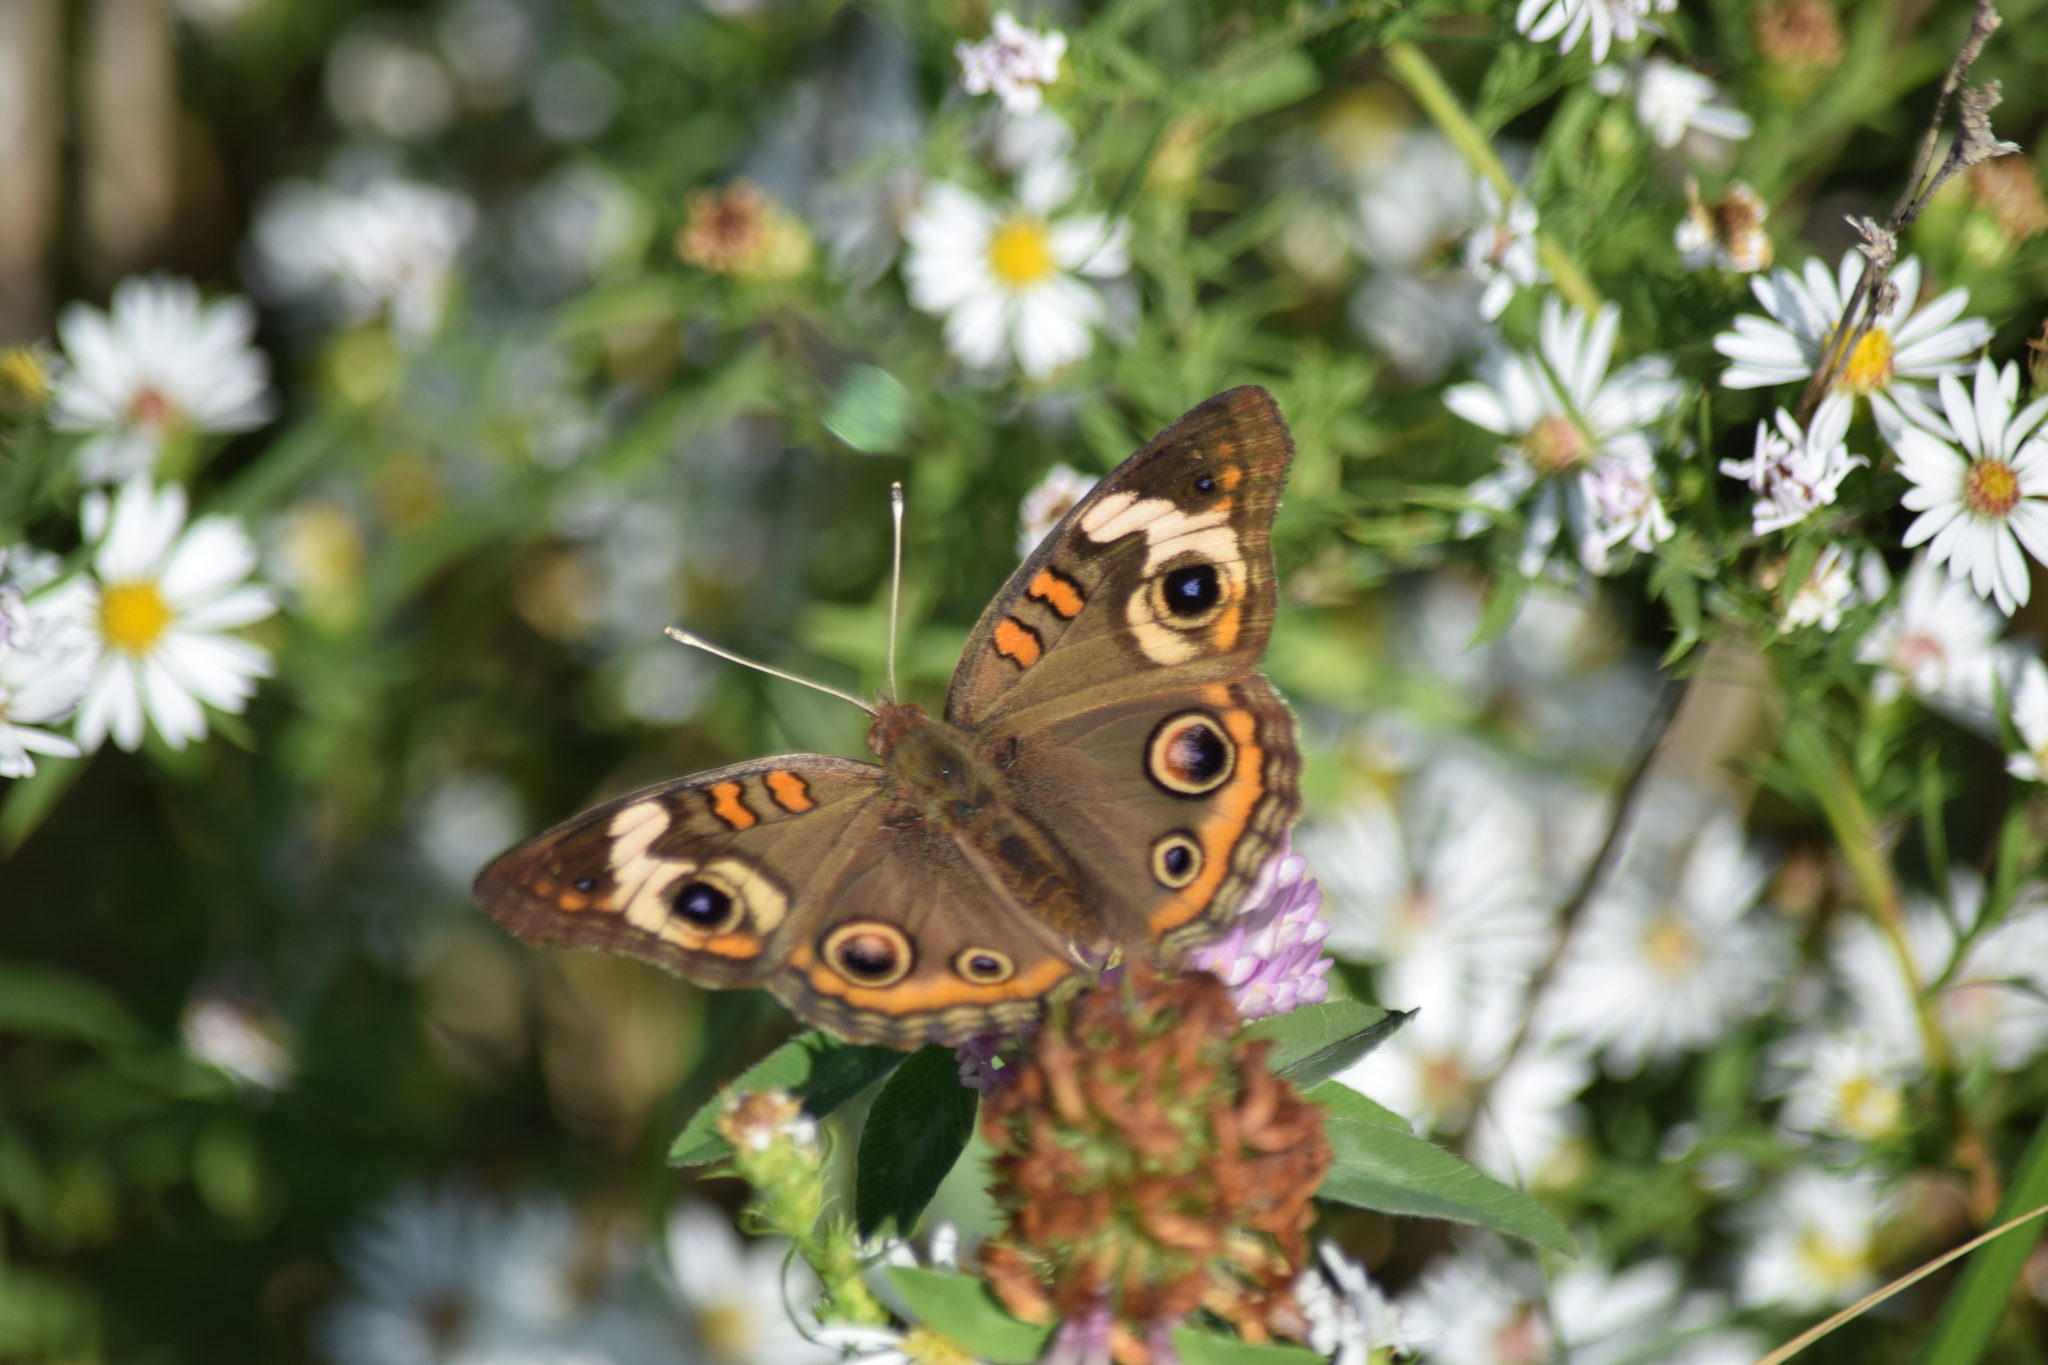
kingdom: Animalia
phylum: Arthropoda
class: Insecta
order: Lepidoptera
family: Nymphalidae
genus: Junonia
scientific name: Junonia coenia
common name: Common buckeye
